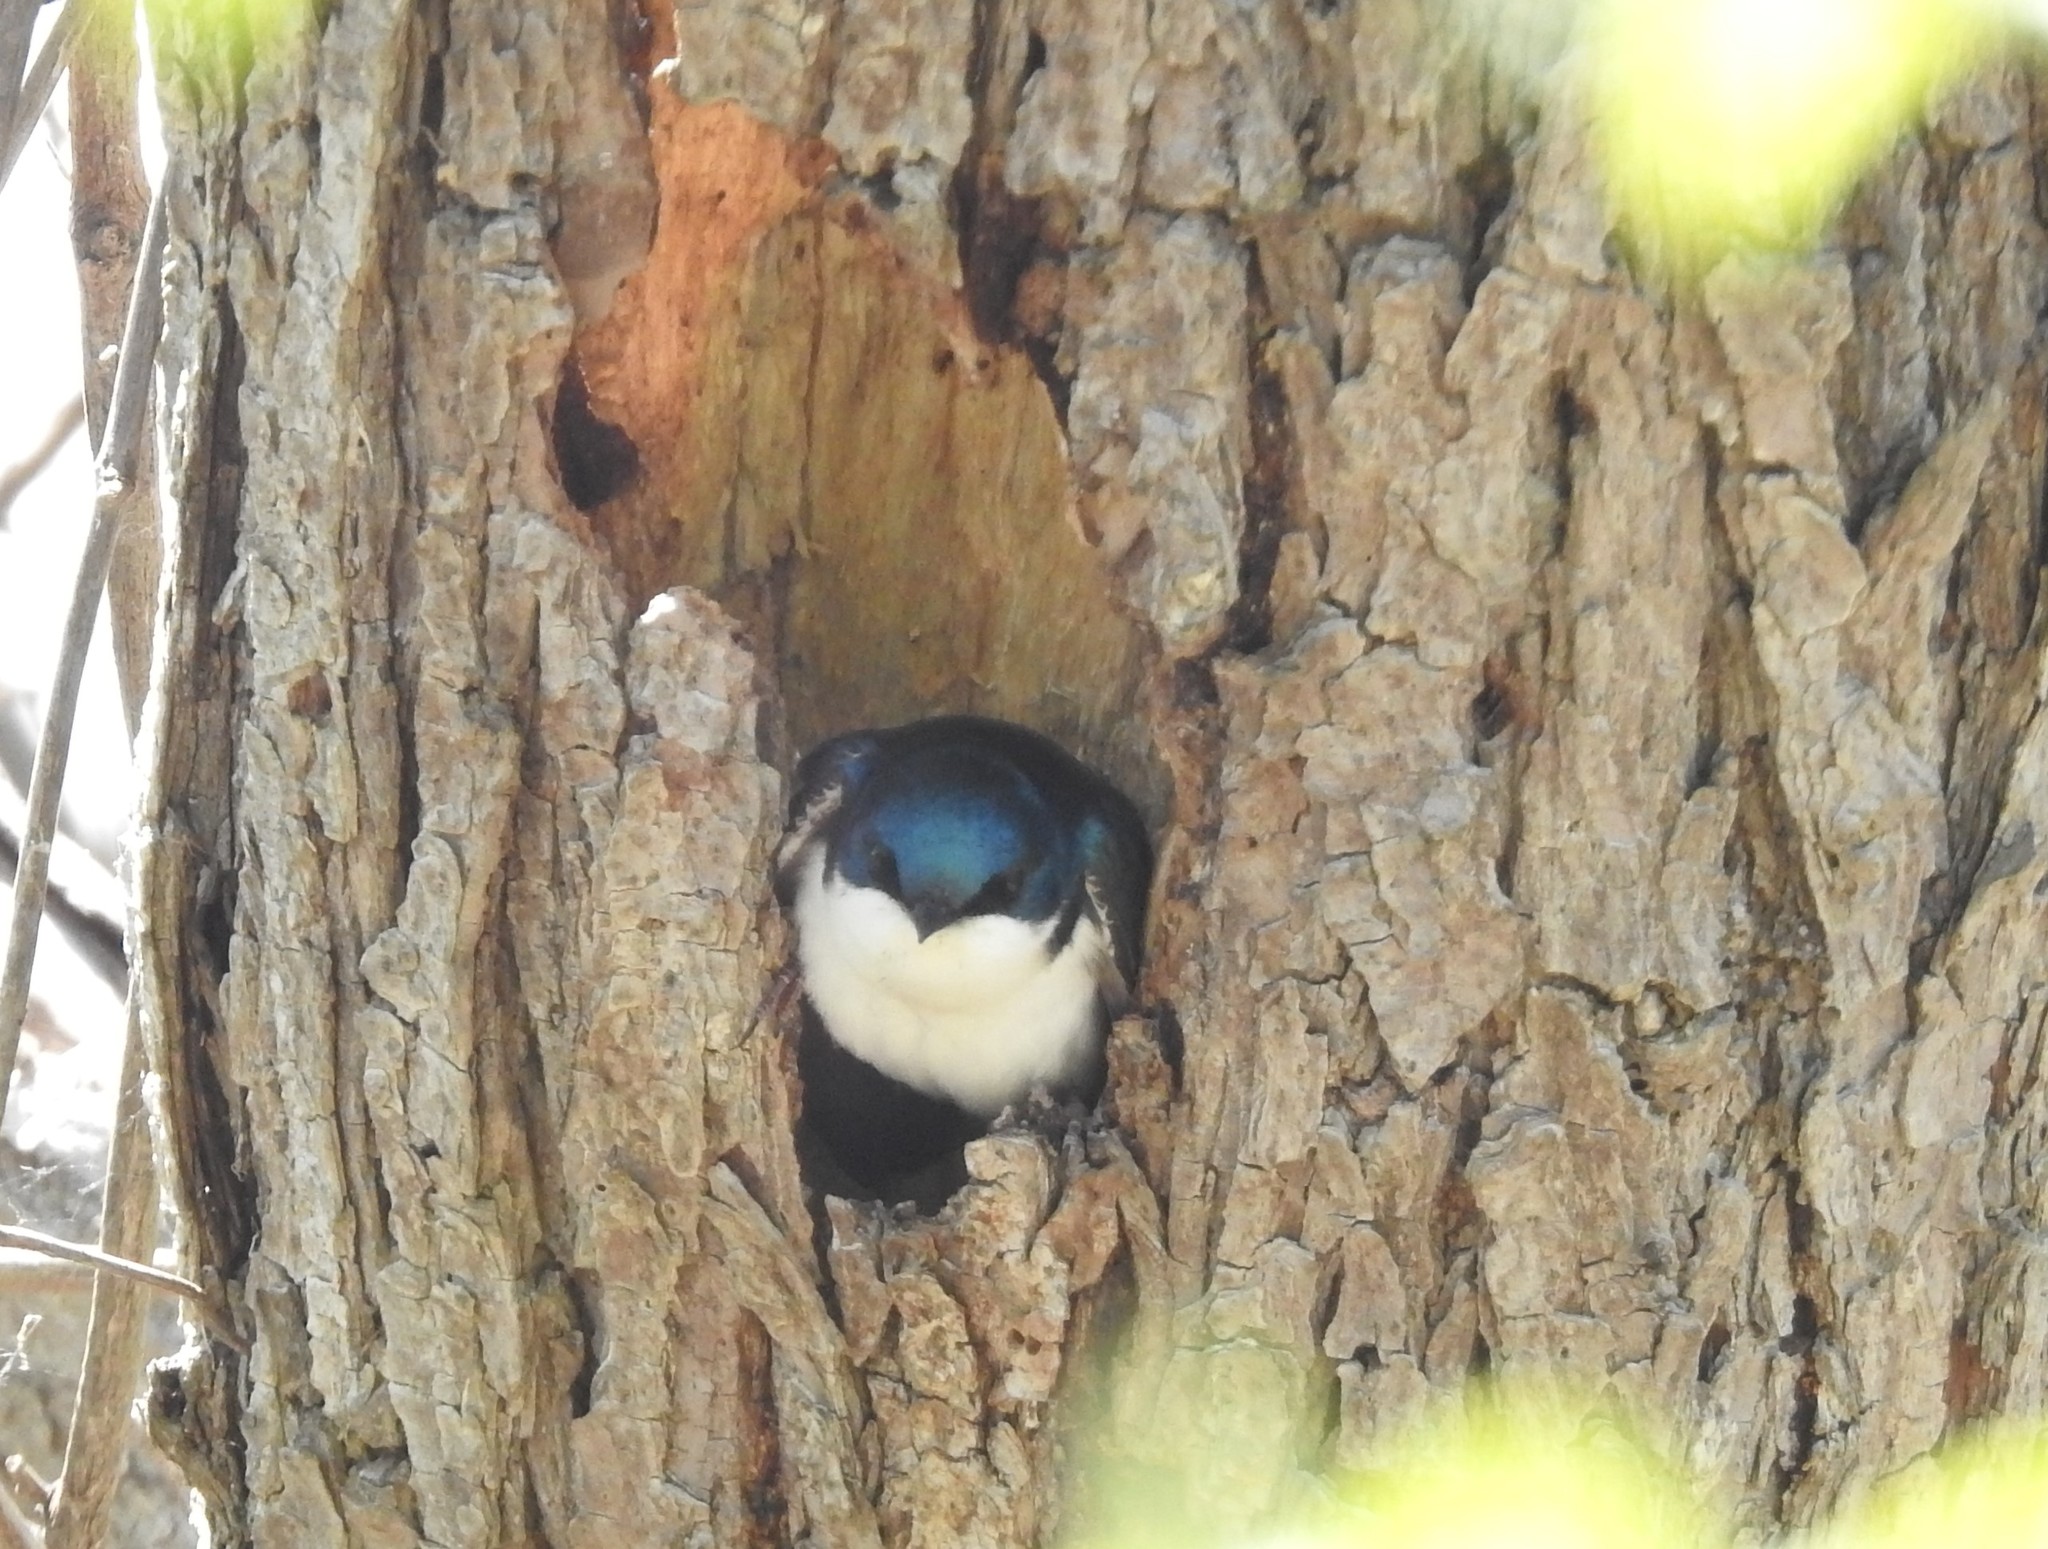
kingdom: Animalia
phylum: Chordata
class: Aves
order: Passeriformes
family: Hirundinidae
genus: Tachycineta
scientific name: Tachycineta bicolor
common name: Tree swallow
